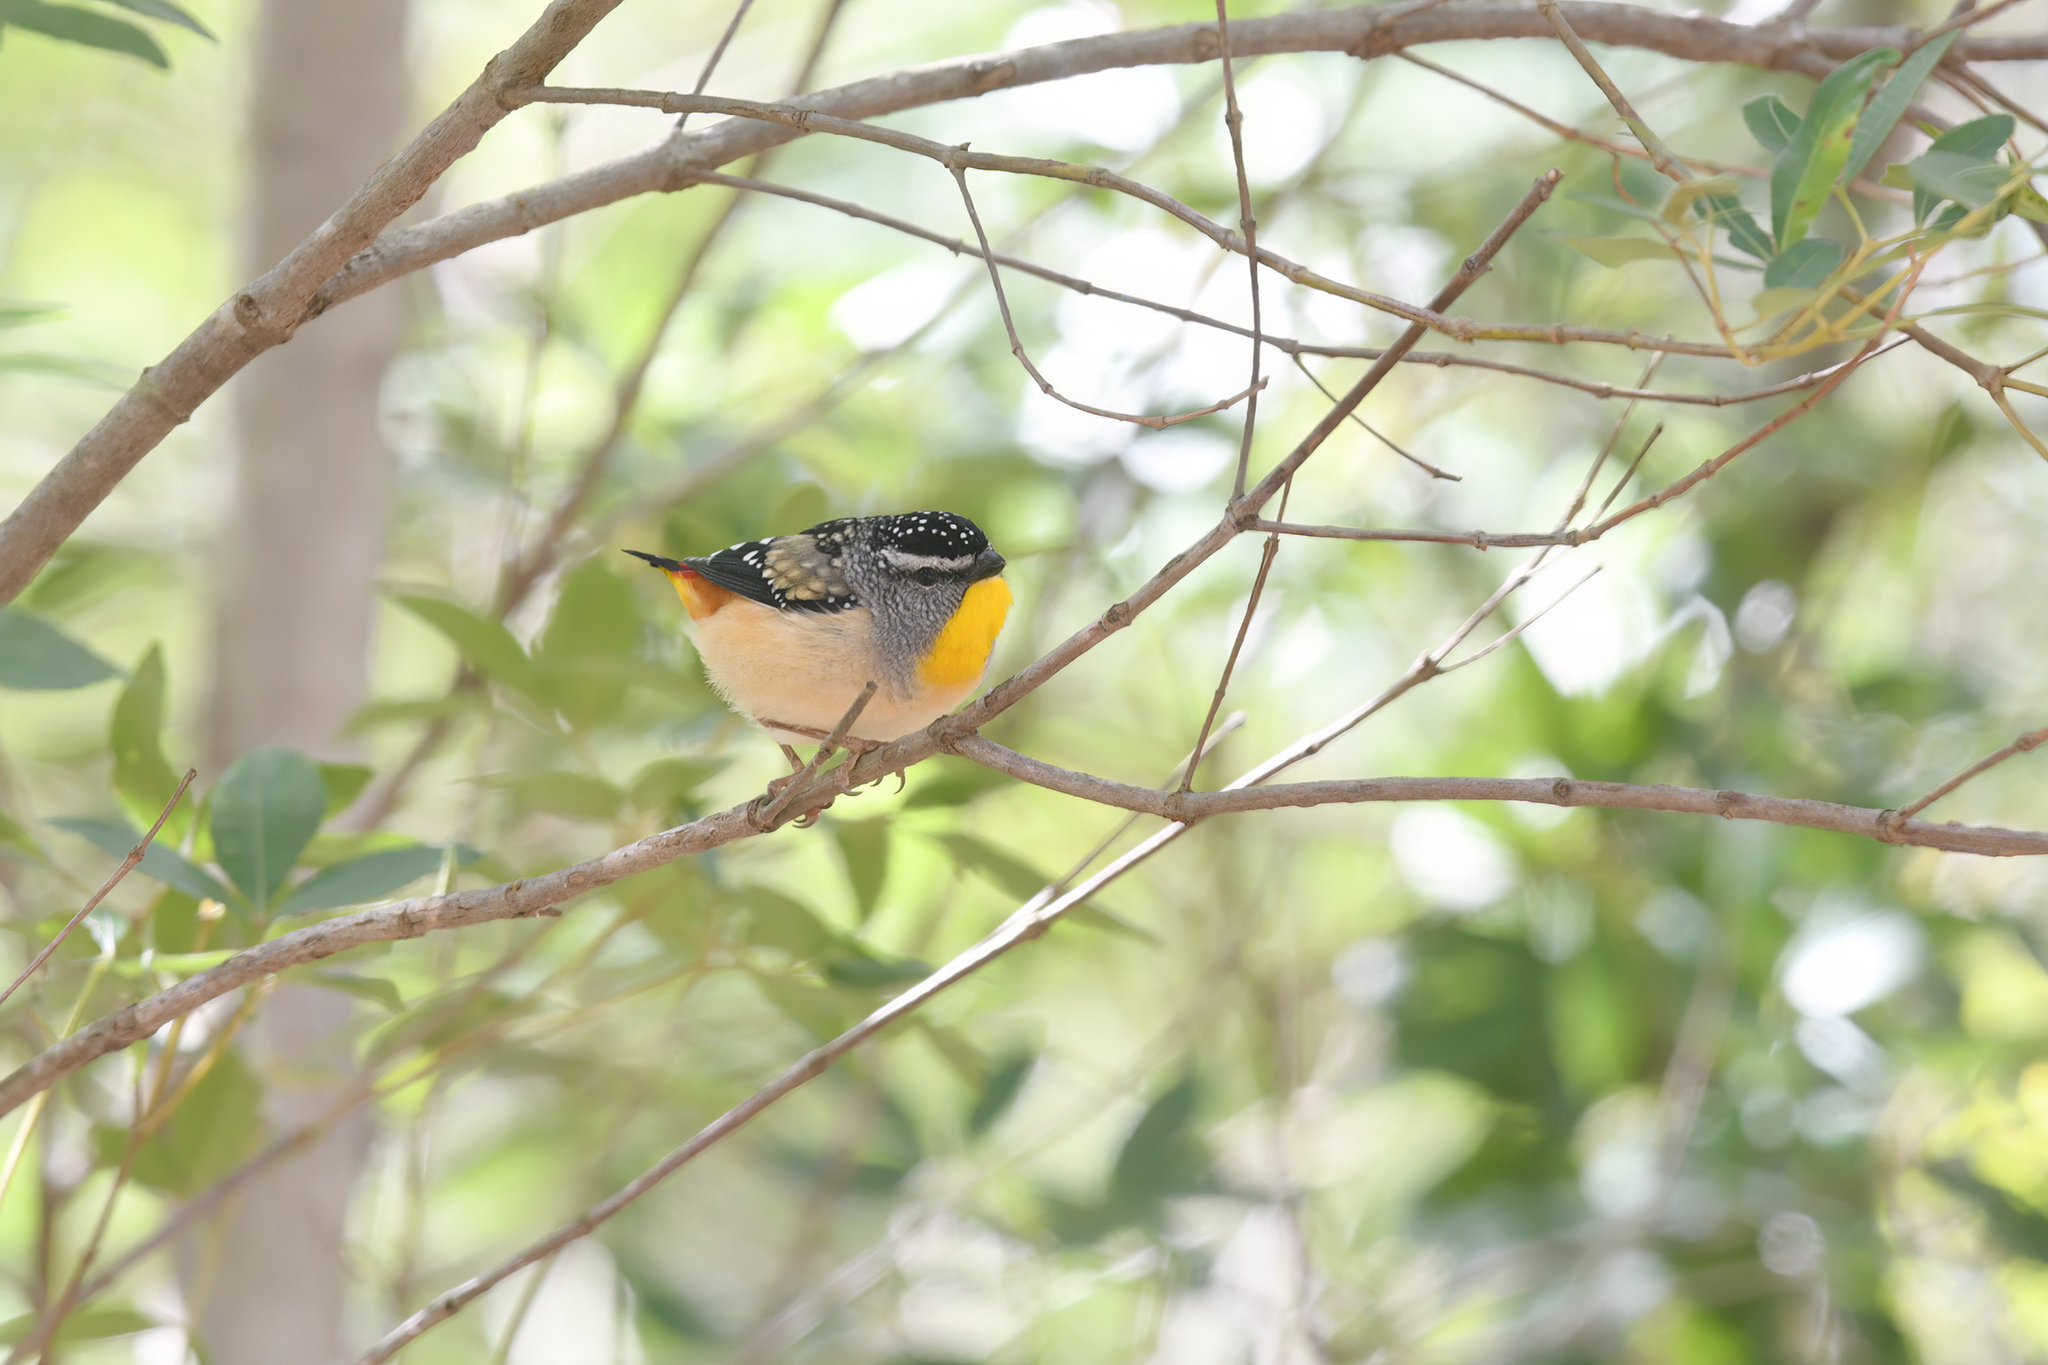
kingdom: Animalia
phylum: Chordata
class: Aves
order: Passeriformes
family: Pardalotidae
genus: Pardalotus
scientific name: Pardalotus punctatus
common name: Spotted pardalote
